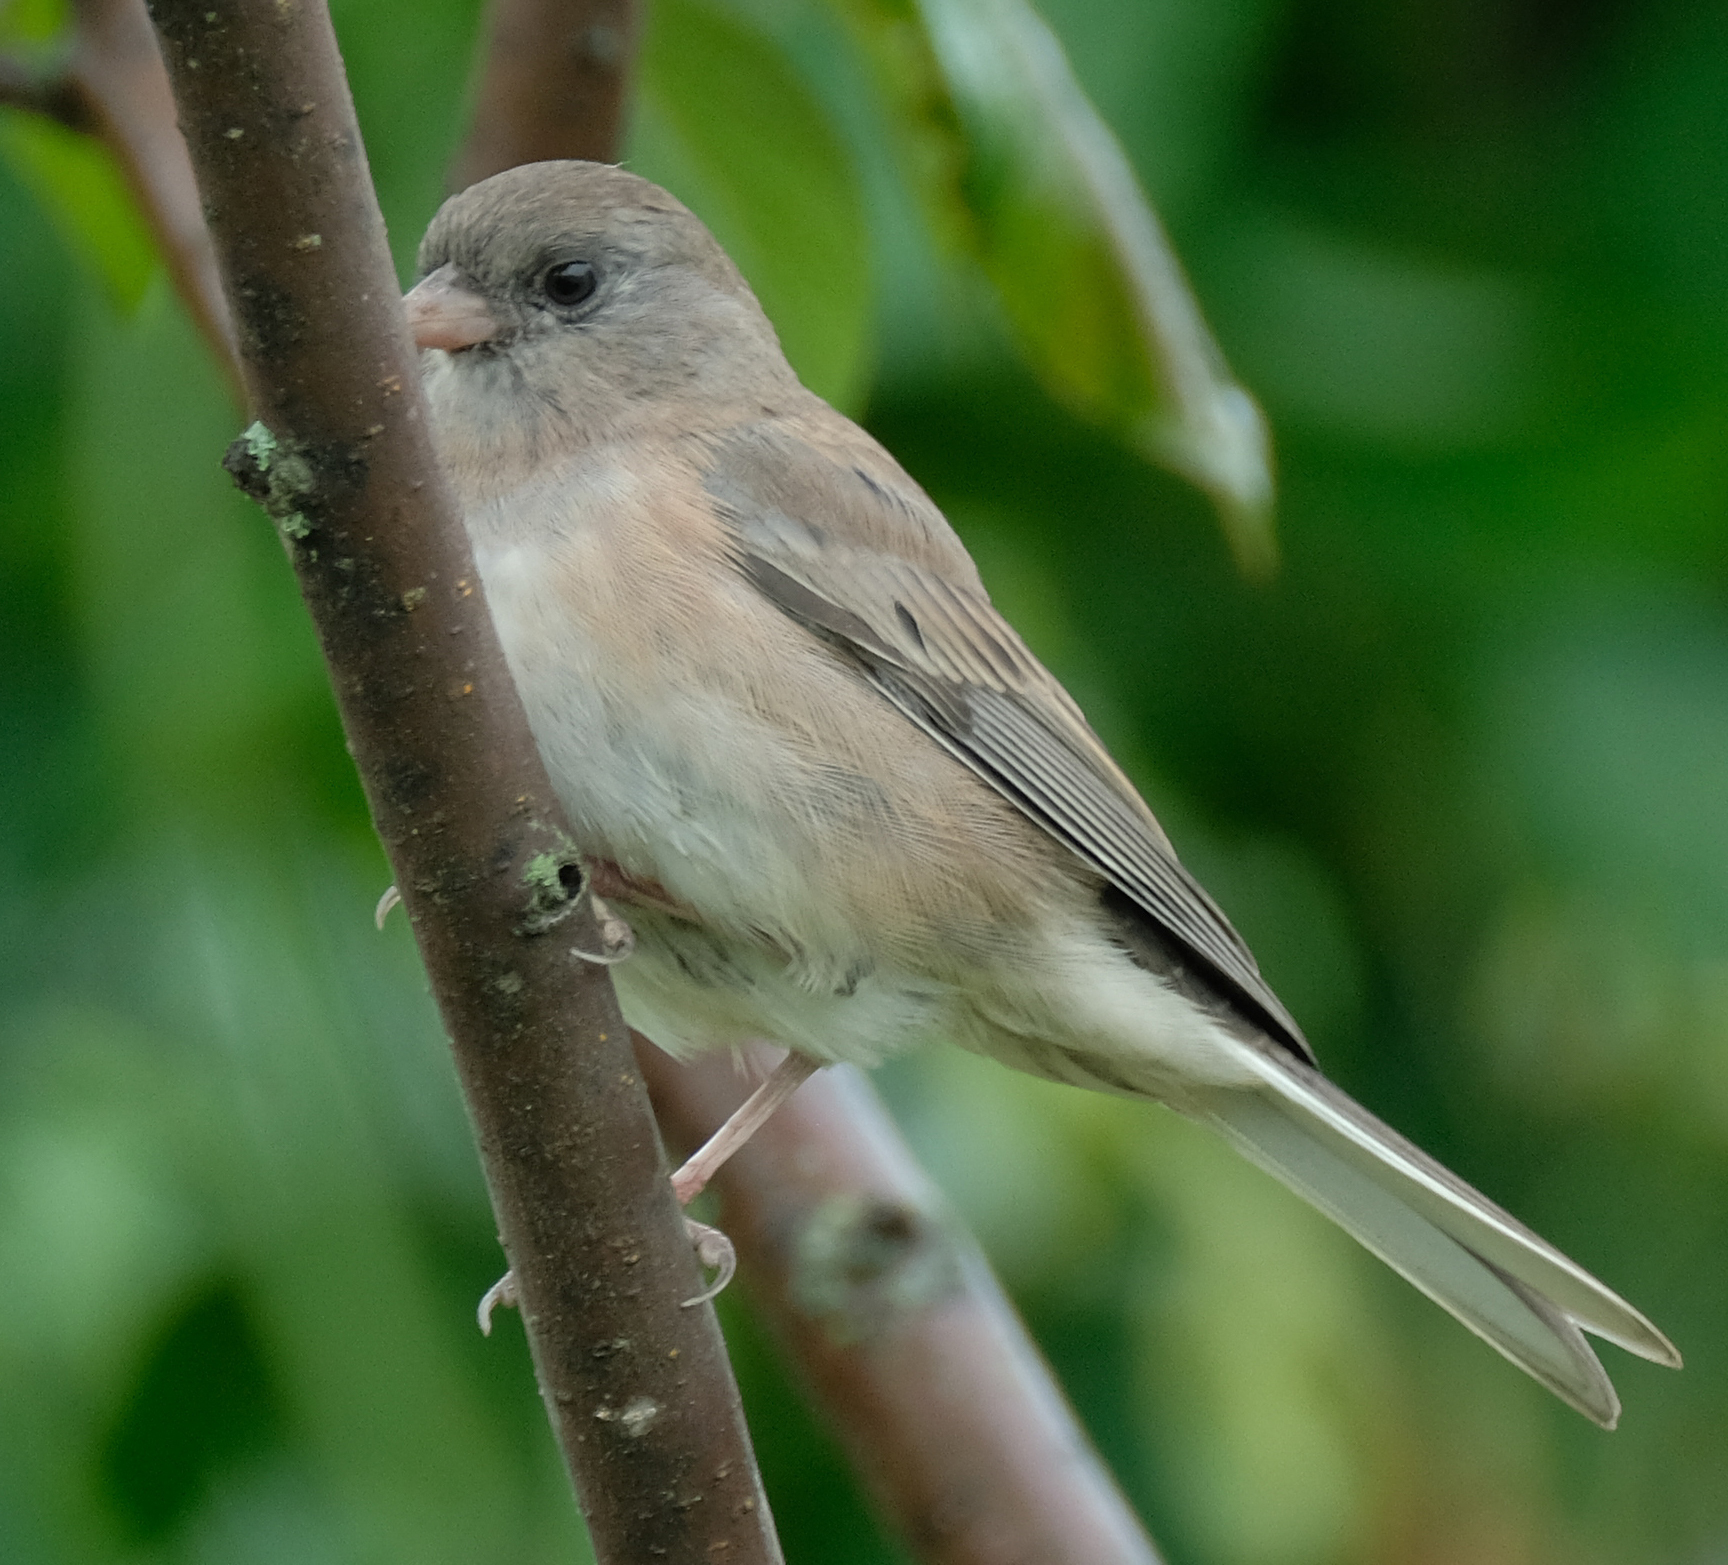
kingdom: Animalia
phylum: Chordata
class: Aves
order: Passeriformes
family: Passerellidae
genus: Junco
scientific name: Junco hyemalis
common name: Dark-eyed junco
